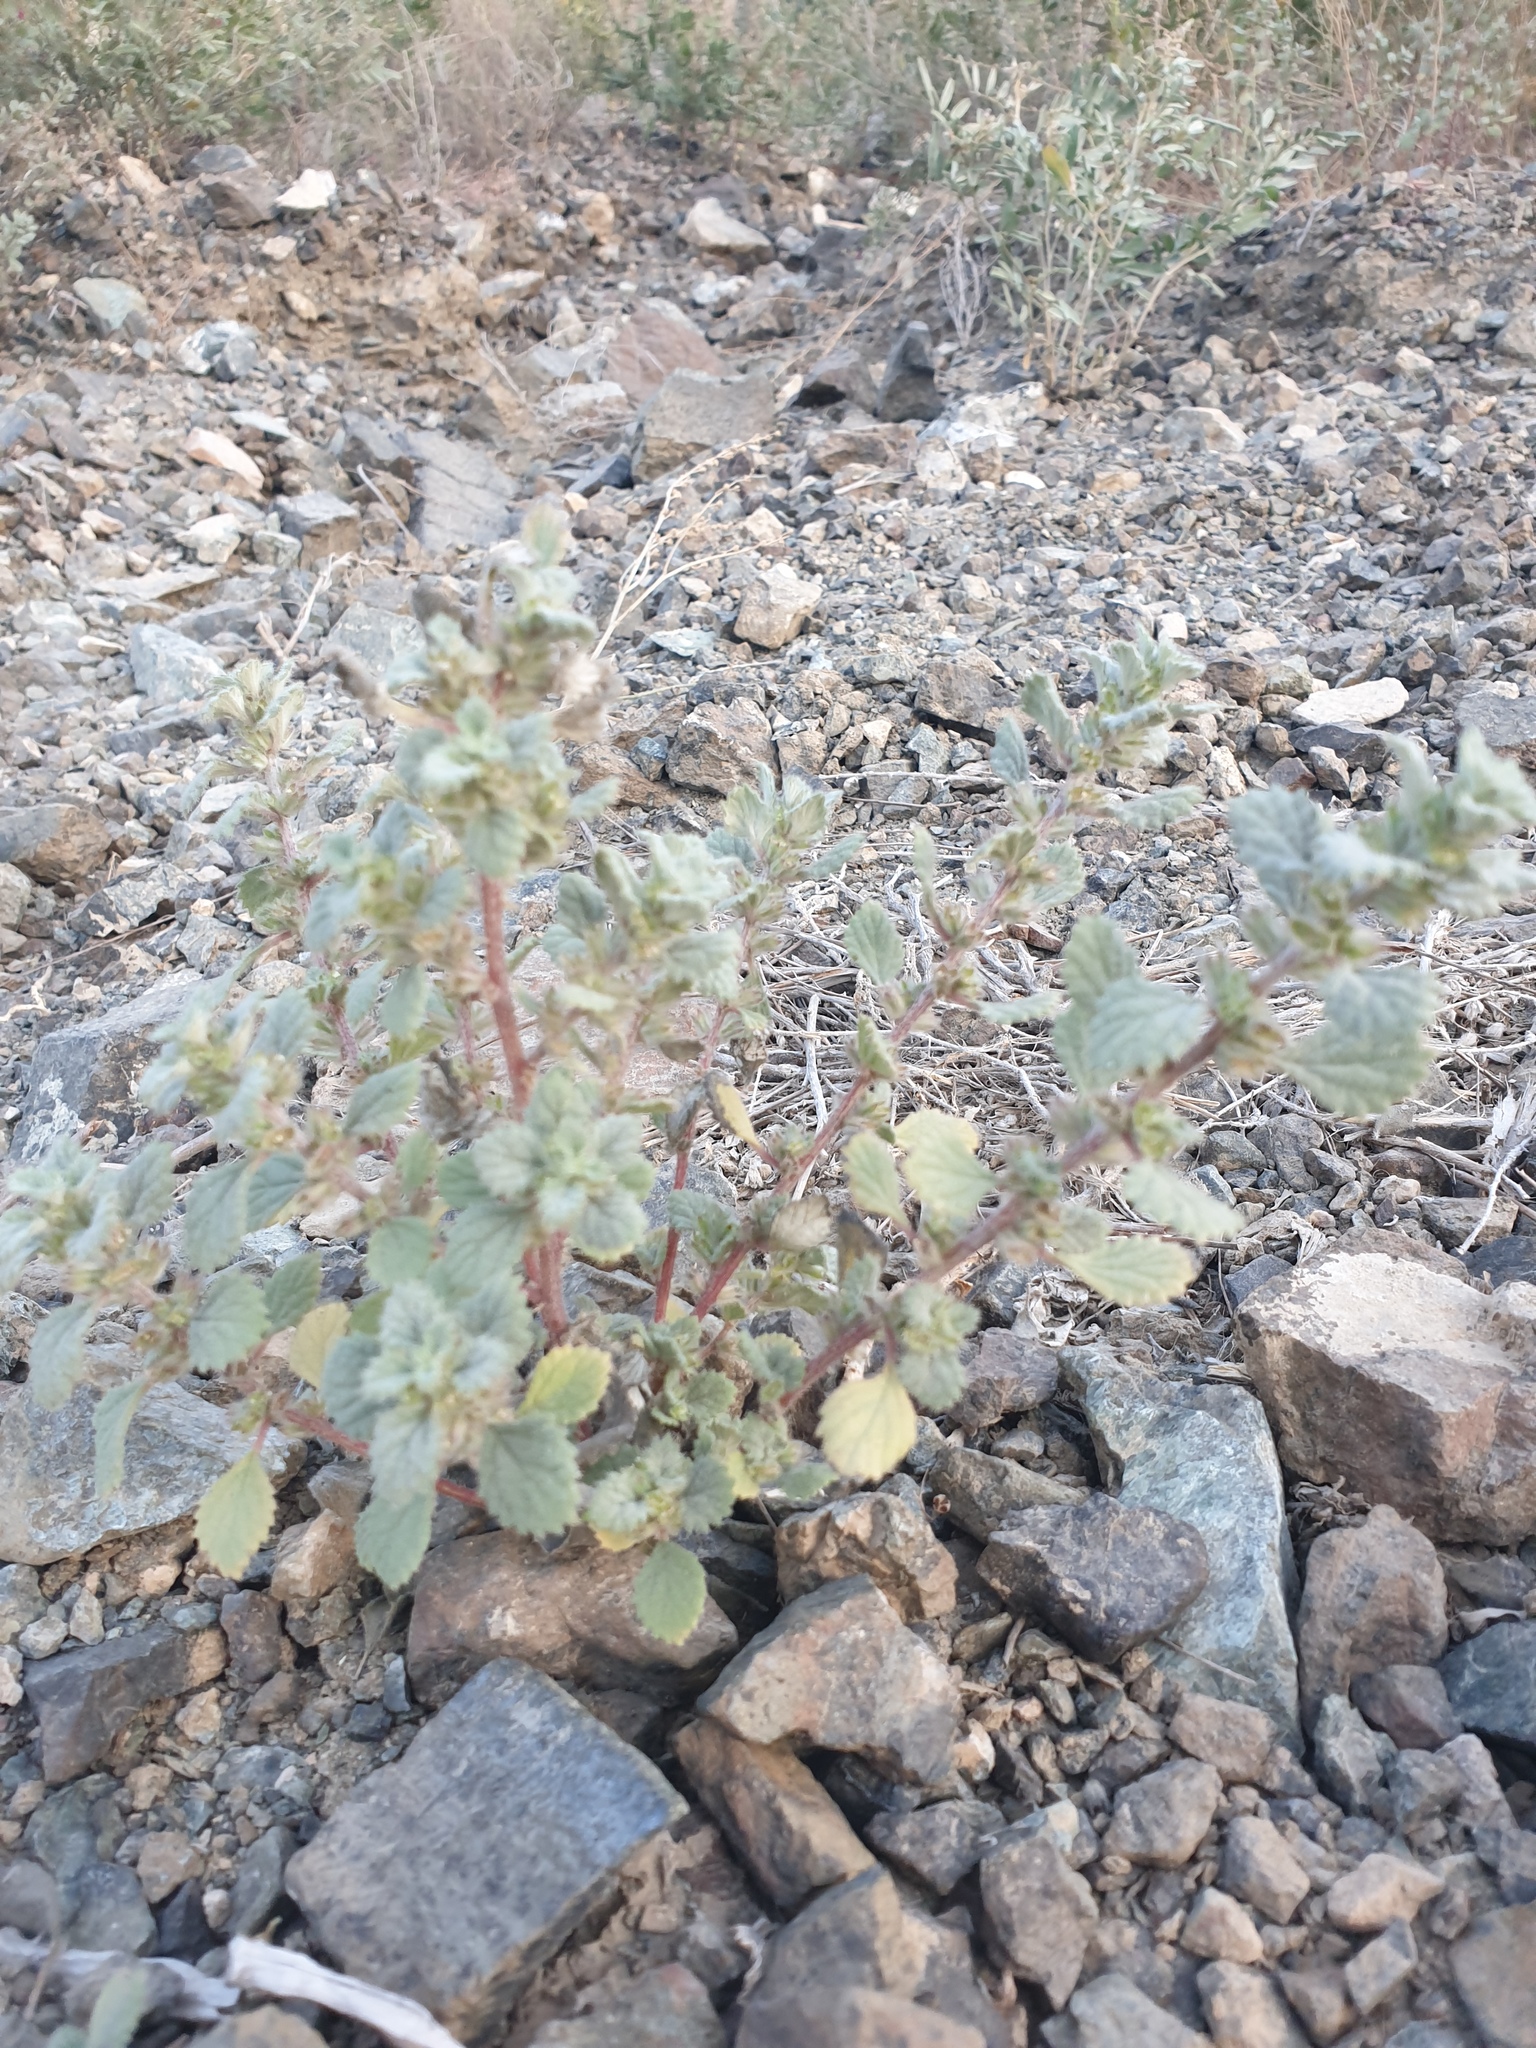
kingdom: Plantae
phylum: Tracheophyta
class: Magnoliopsida
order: Rosales
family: Urticaceae
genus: Forsskaolea
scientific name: Forsskaolea tenacissima
